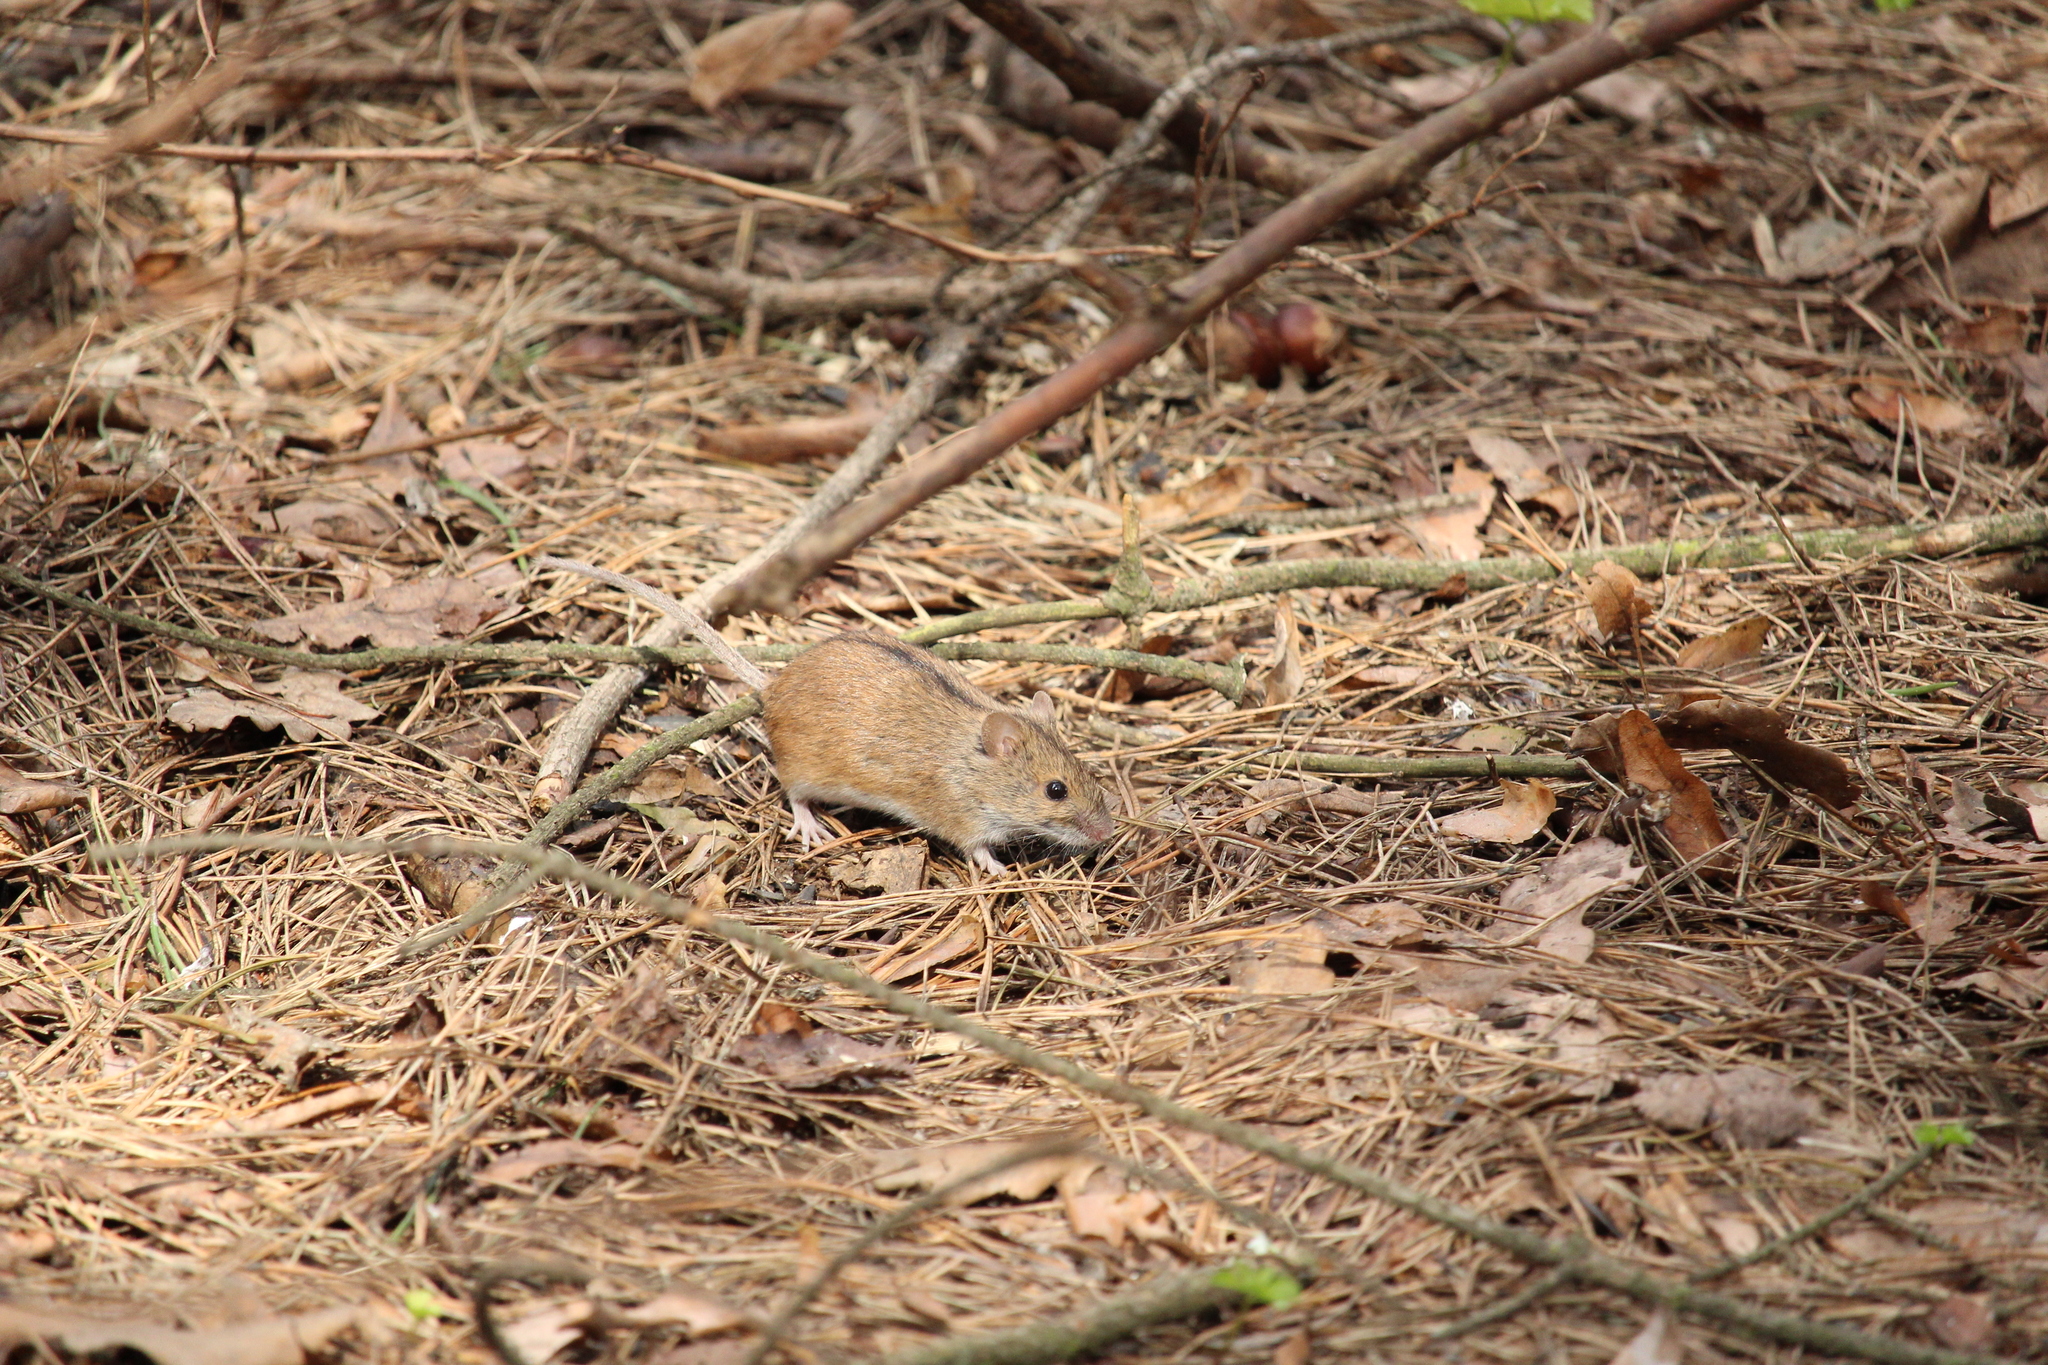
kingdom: Animalia
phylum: Chordata
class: Mammalia
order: Rodentia
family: Muridae
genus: Apodemus
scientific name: Apodemus agrarius
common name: Striped field mouse
